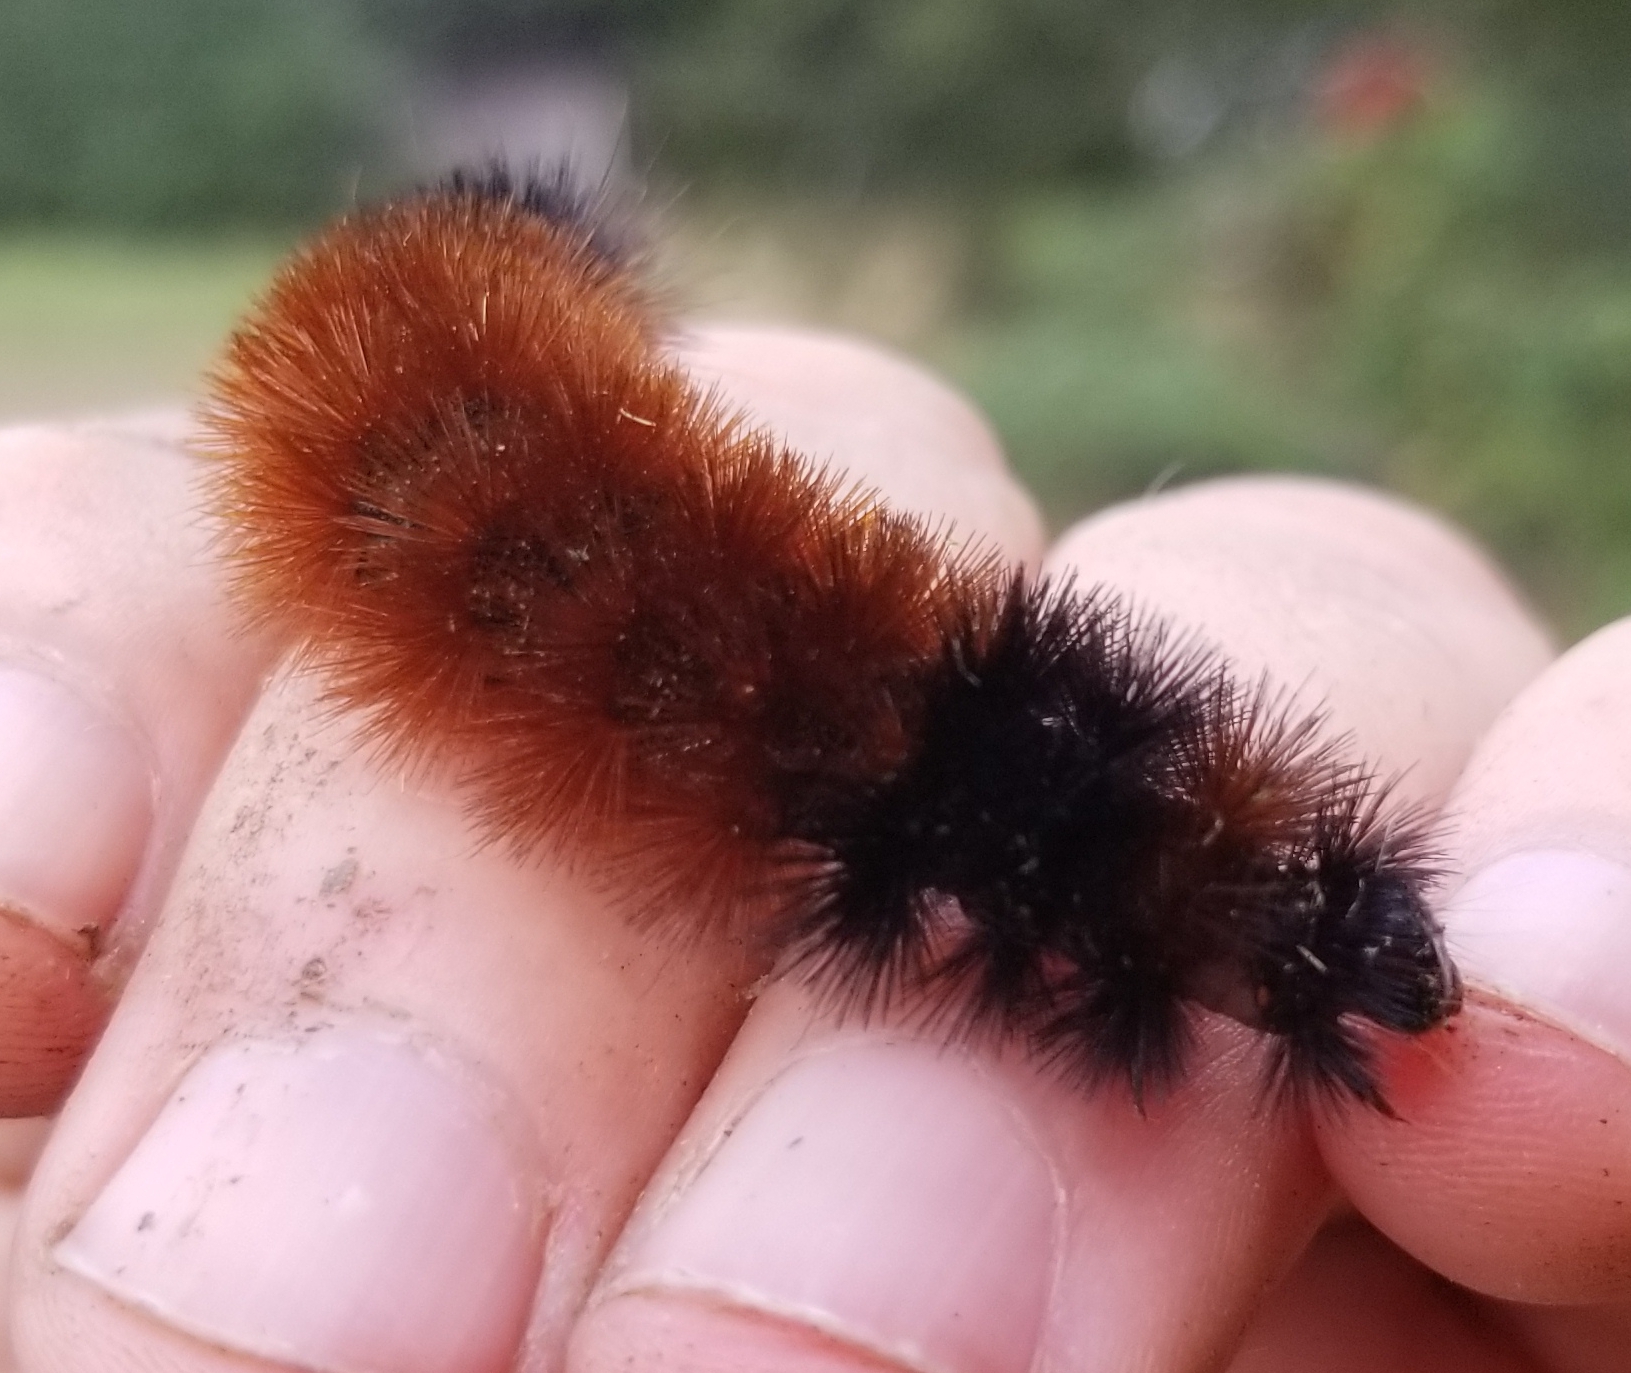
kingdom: Animalia
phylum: Arthropoda
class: Insecta
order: Lepidoptera
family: Erebidae
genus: Pyrrharctia
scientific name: Pyrrharctia isabella
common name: Isabella tiger moth
